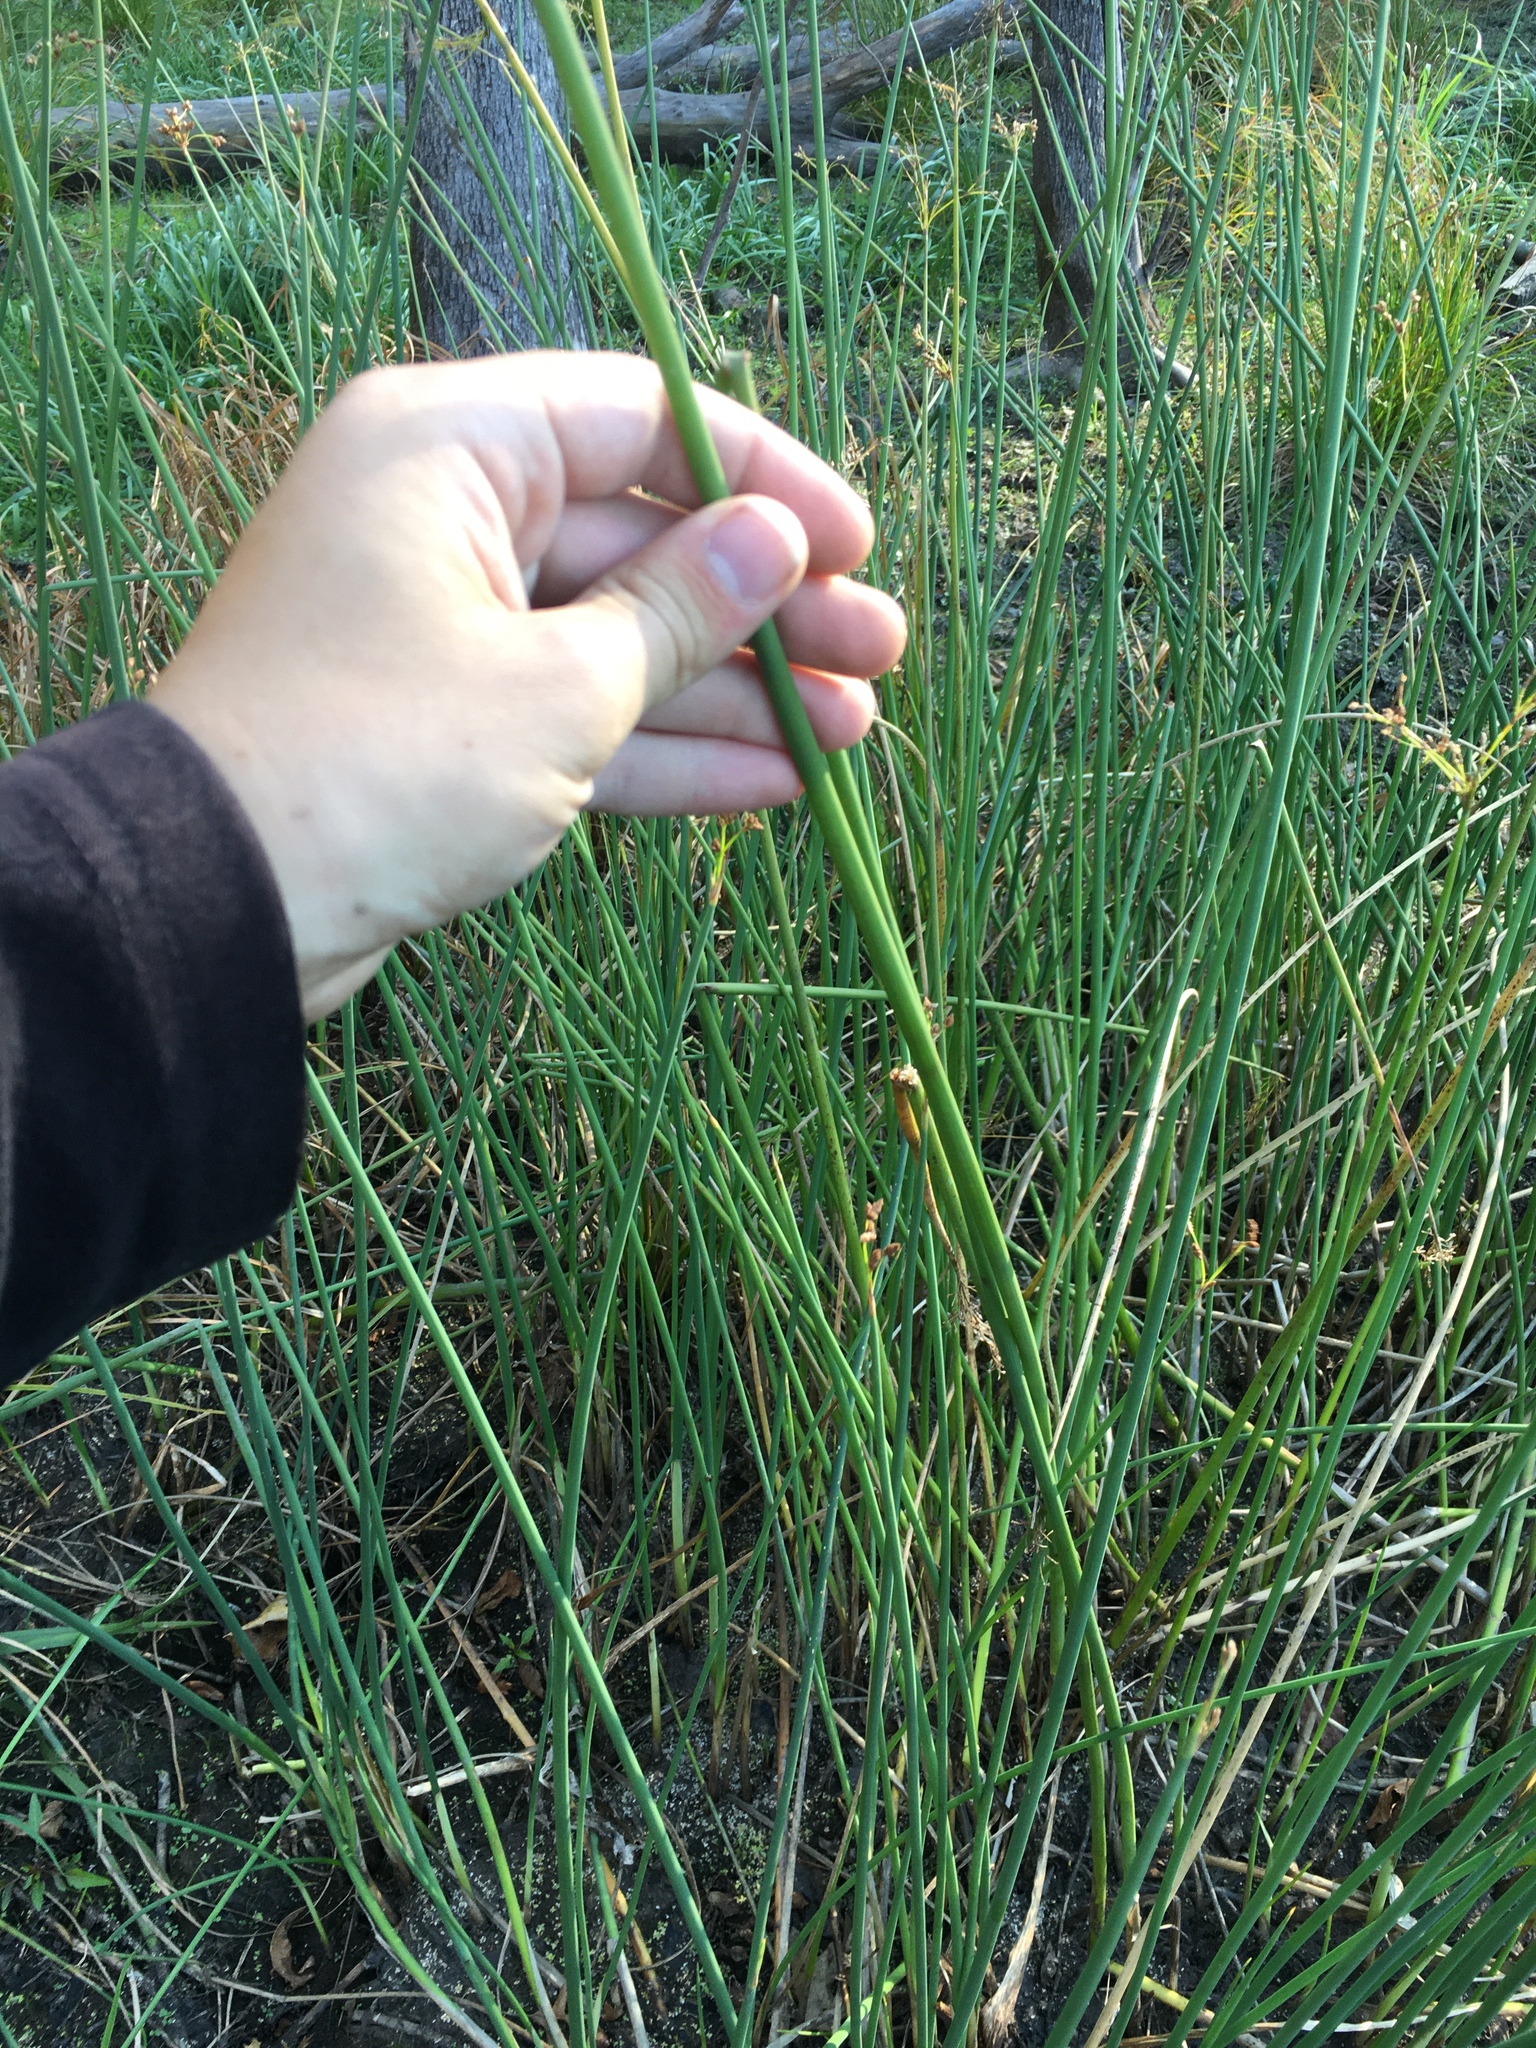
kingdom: Plantae
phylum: Tracheophyta
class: Liliopsida
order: Poales
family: Cyperaceae
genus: Schoenoplectus
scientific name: Schoenoplectus tabernaemontani
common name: Grey club-rush
